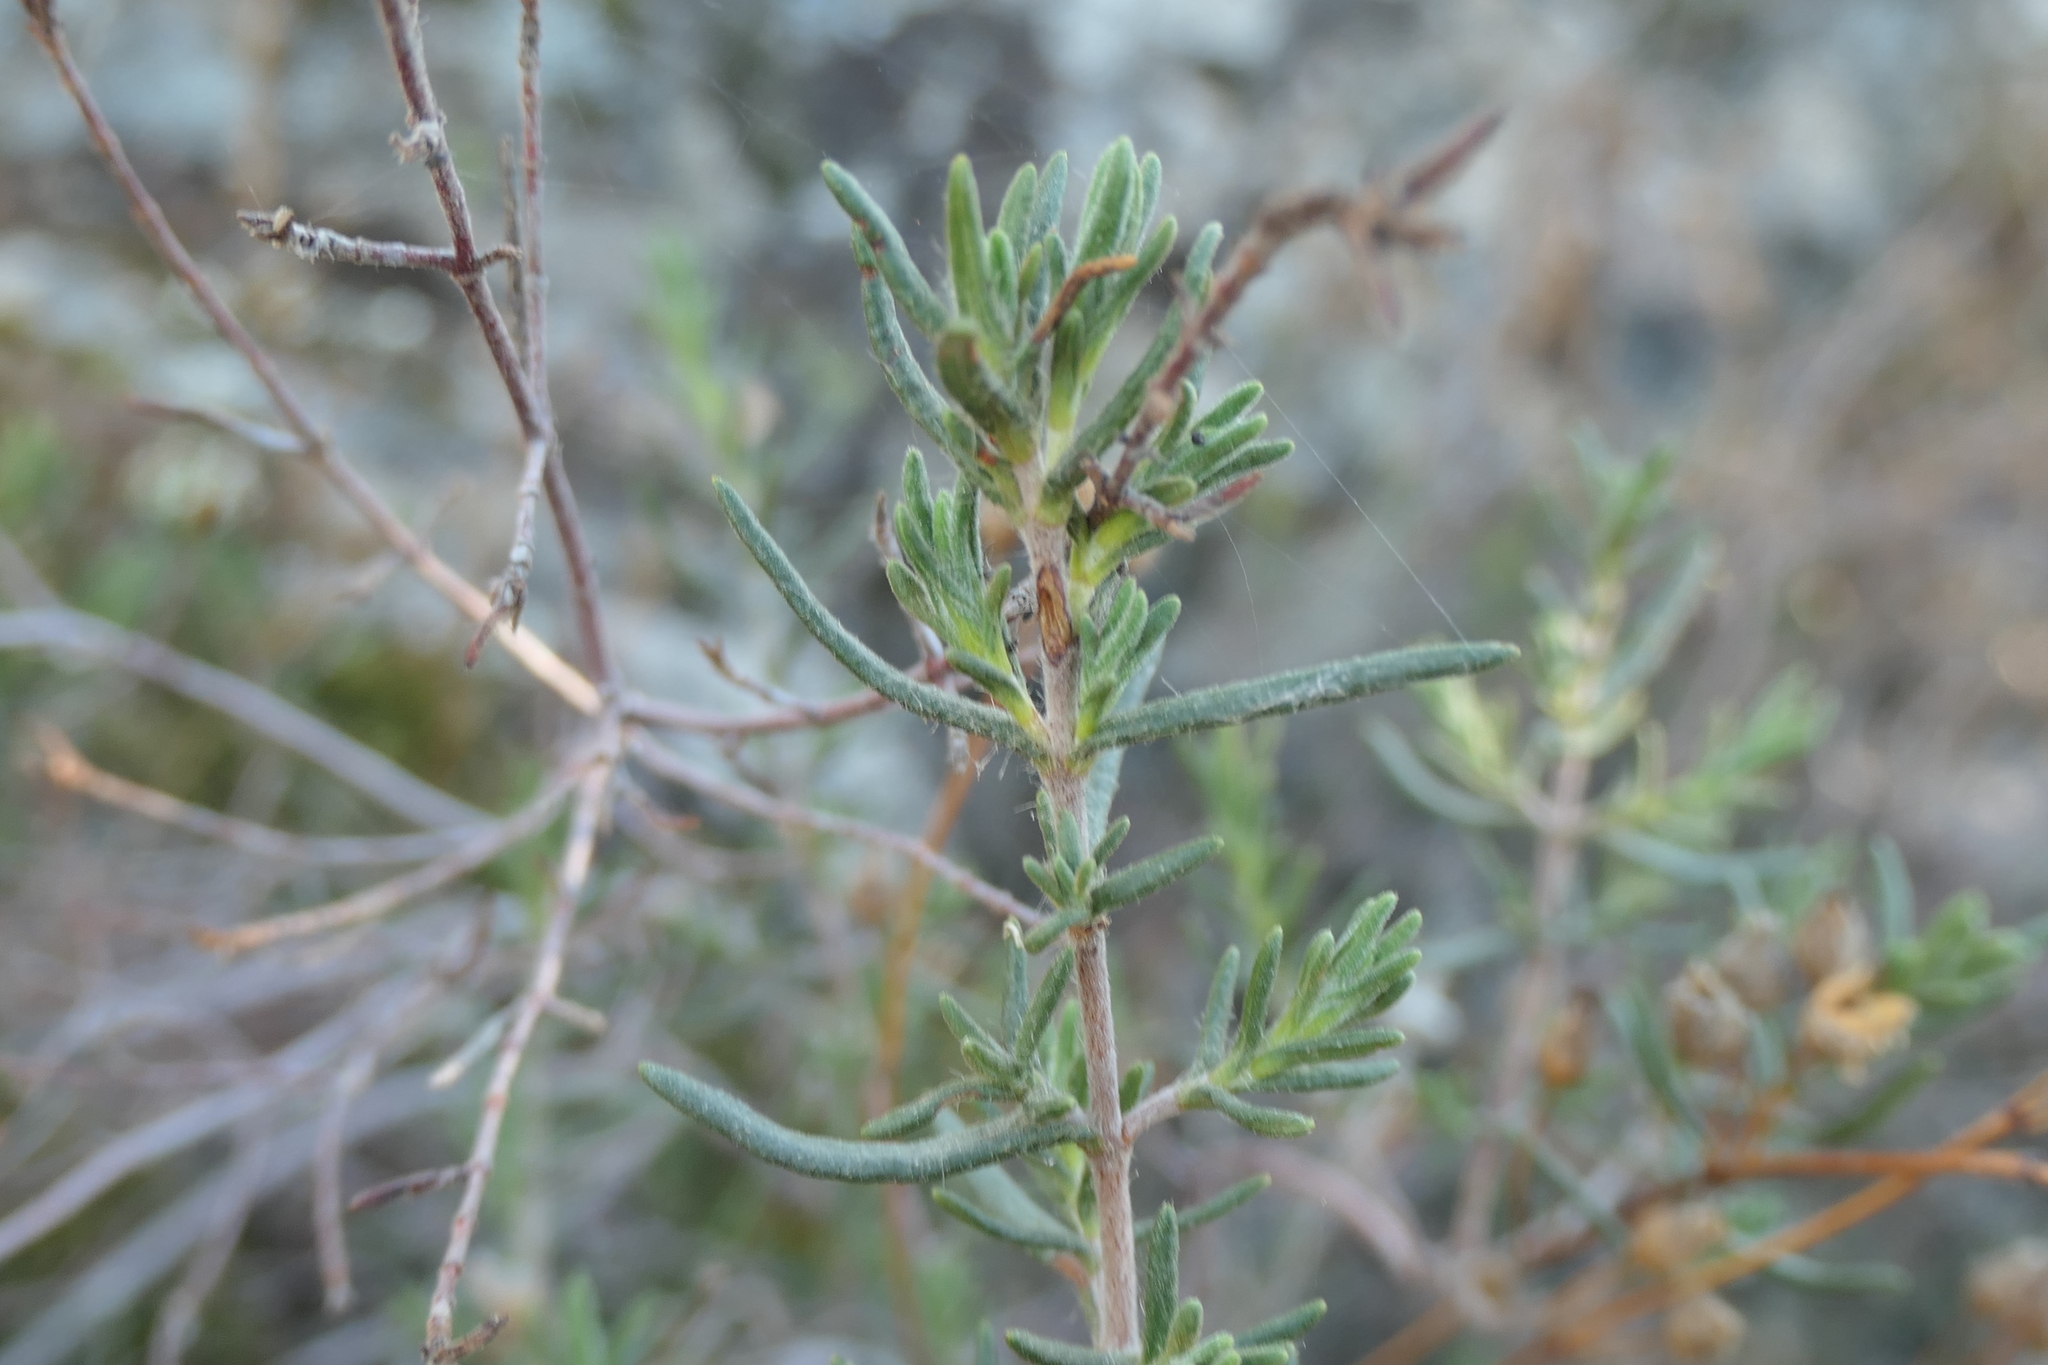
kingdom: Plantae
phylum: Tracheophyta
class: Magnoliopsida
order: Malvales
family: Cistaceae
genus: Halimium
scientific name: Halimium umbellatum
